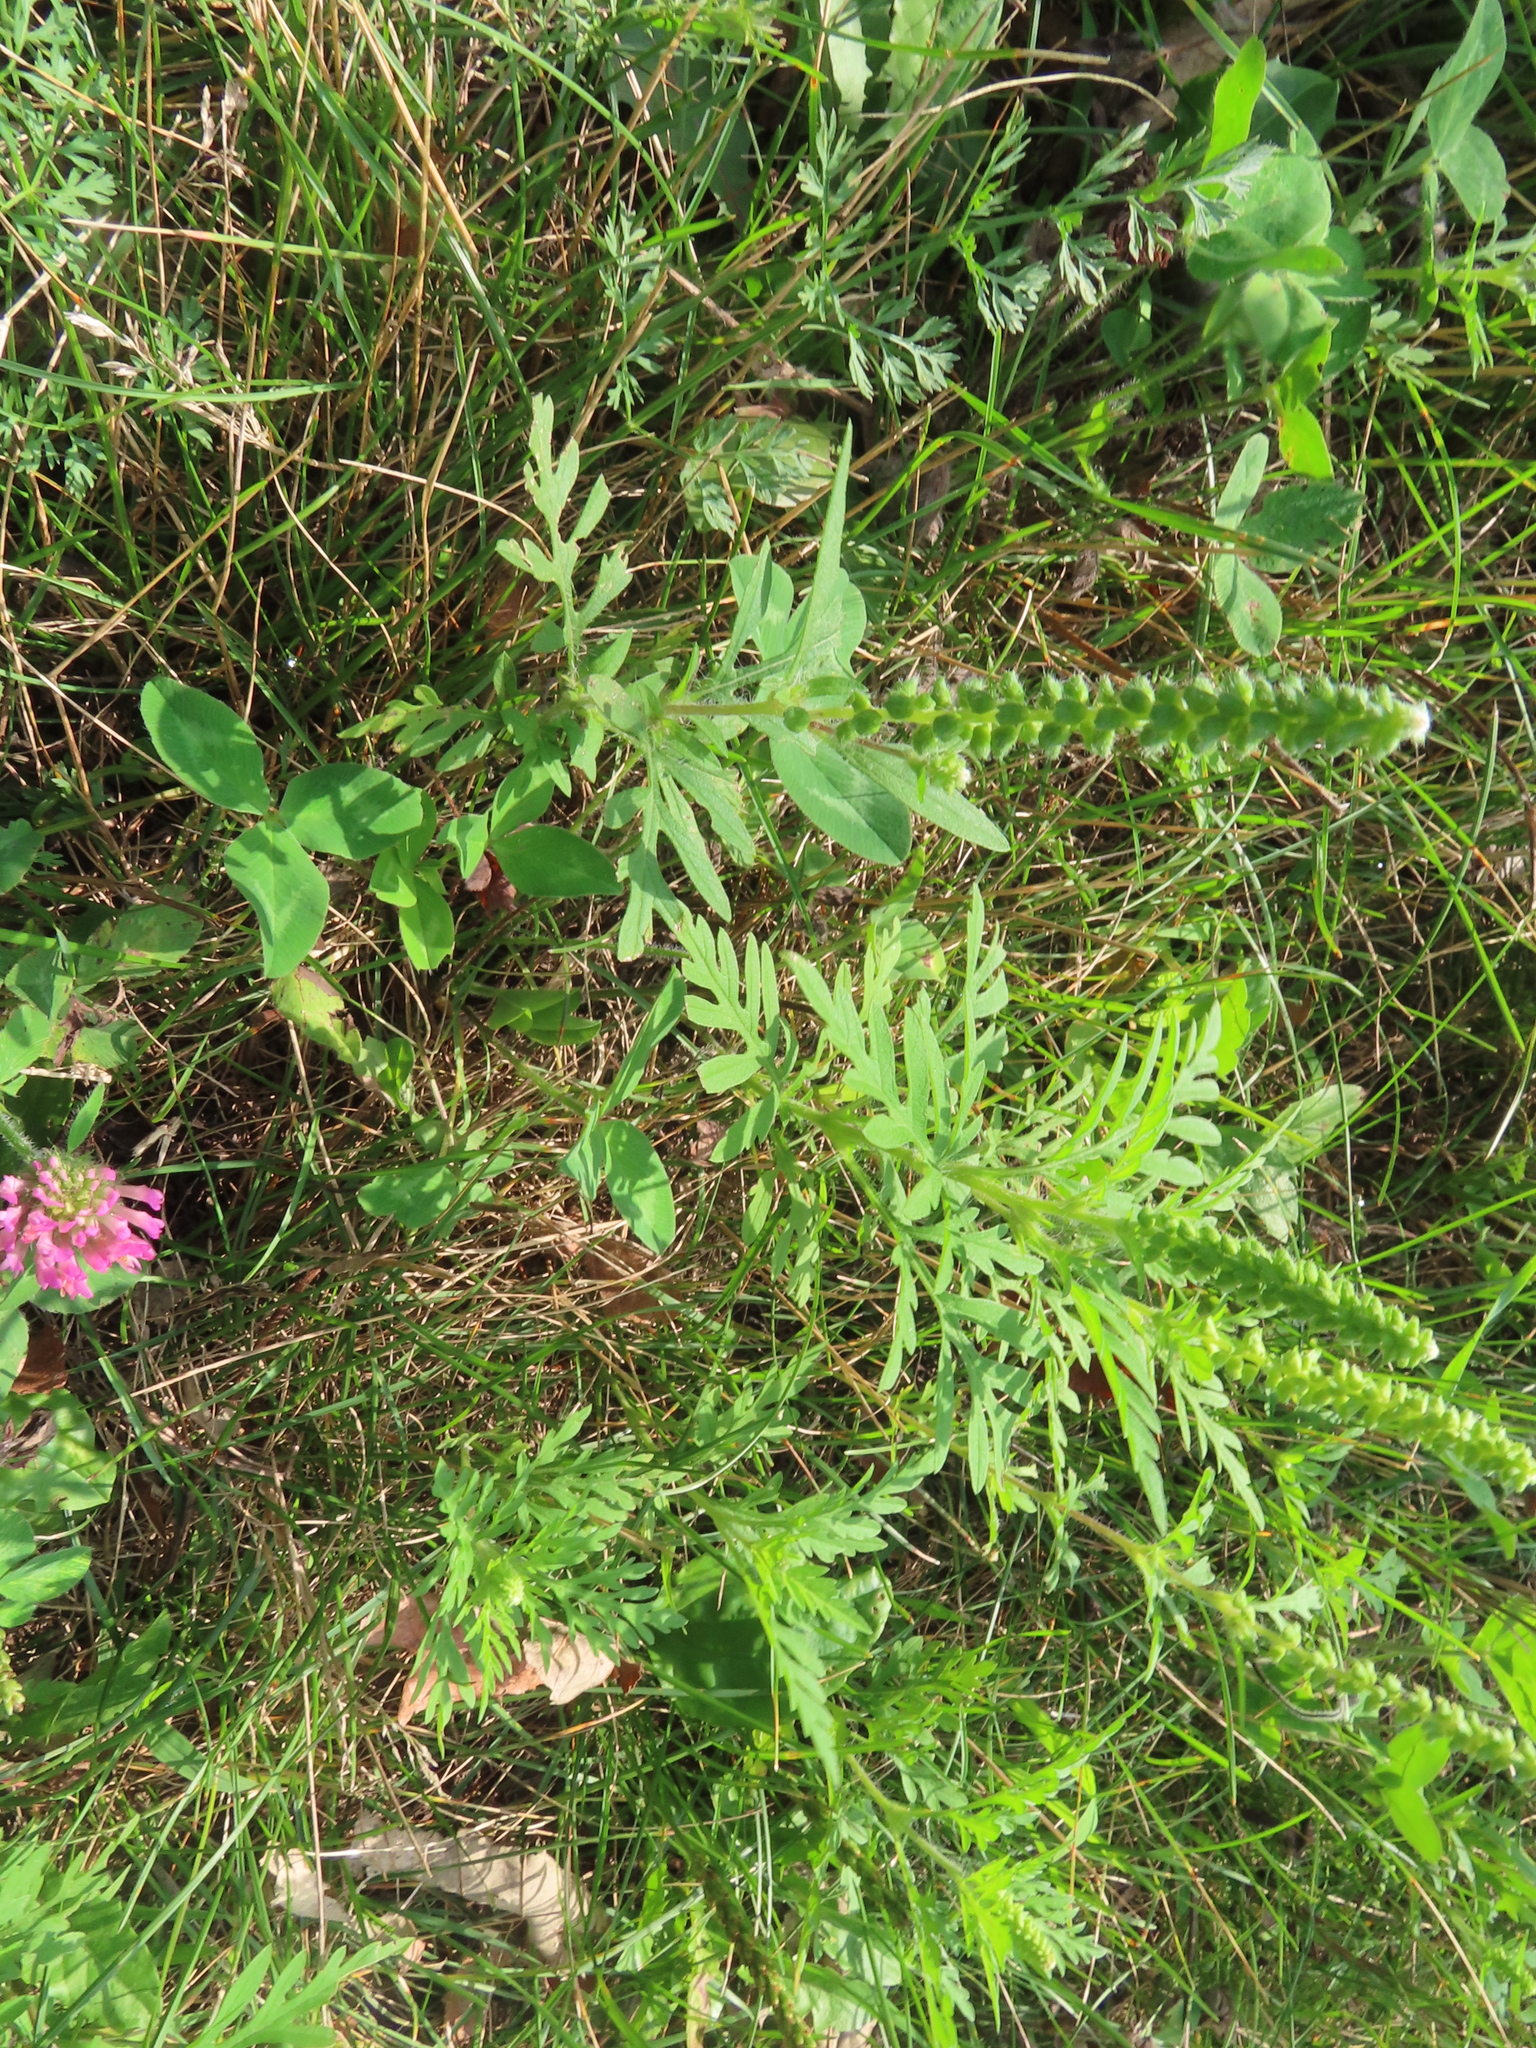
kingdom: Plantae
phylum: Tracheophyta
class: Magnoliopsida
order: Asterales
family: Asteraceae
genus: Ambrosia
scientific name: Ambrosia artemisiifolia
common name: Annual ragweed
